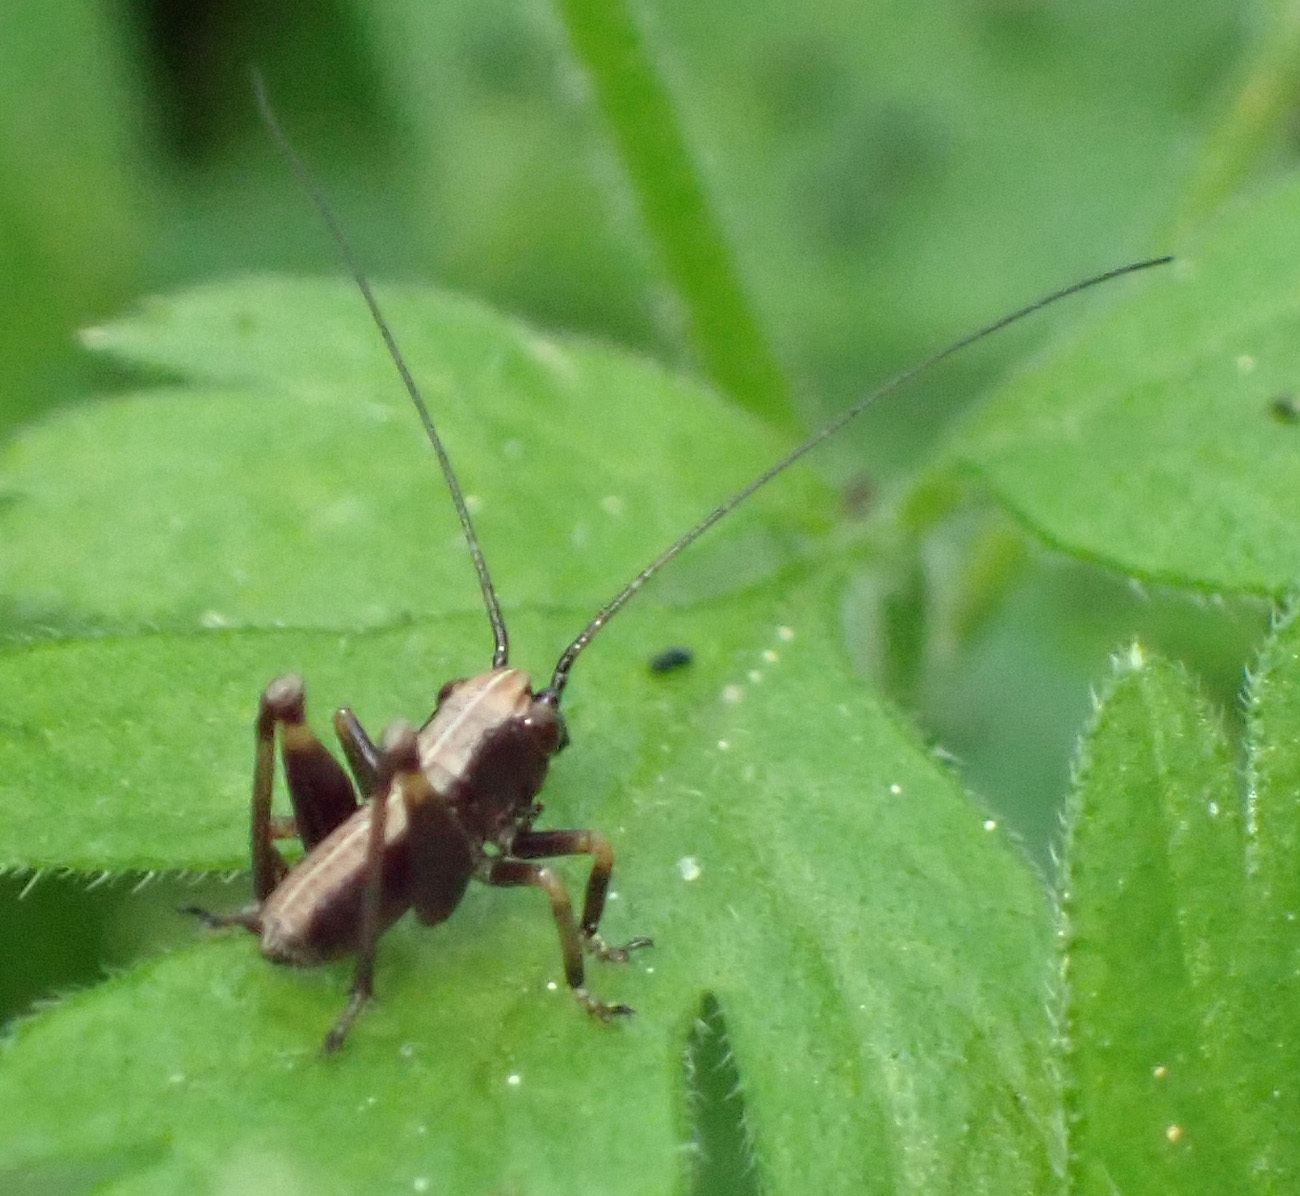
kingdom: Animalia
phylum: Arthropoda
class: Insecta
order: Orthoptera
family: Tettigoniidae
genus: Pholidoptera
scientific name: Pholidoptera griseoaptera
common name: Dark bush-cricket
